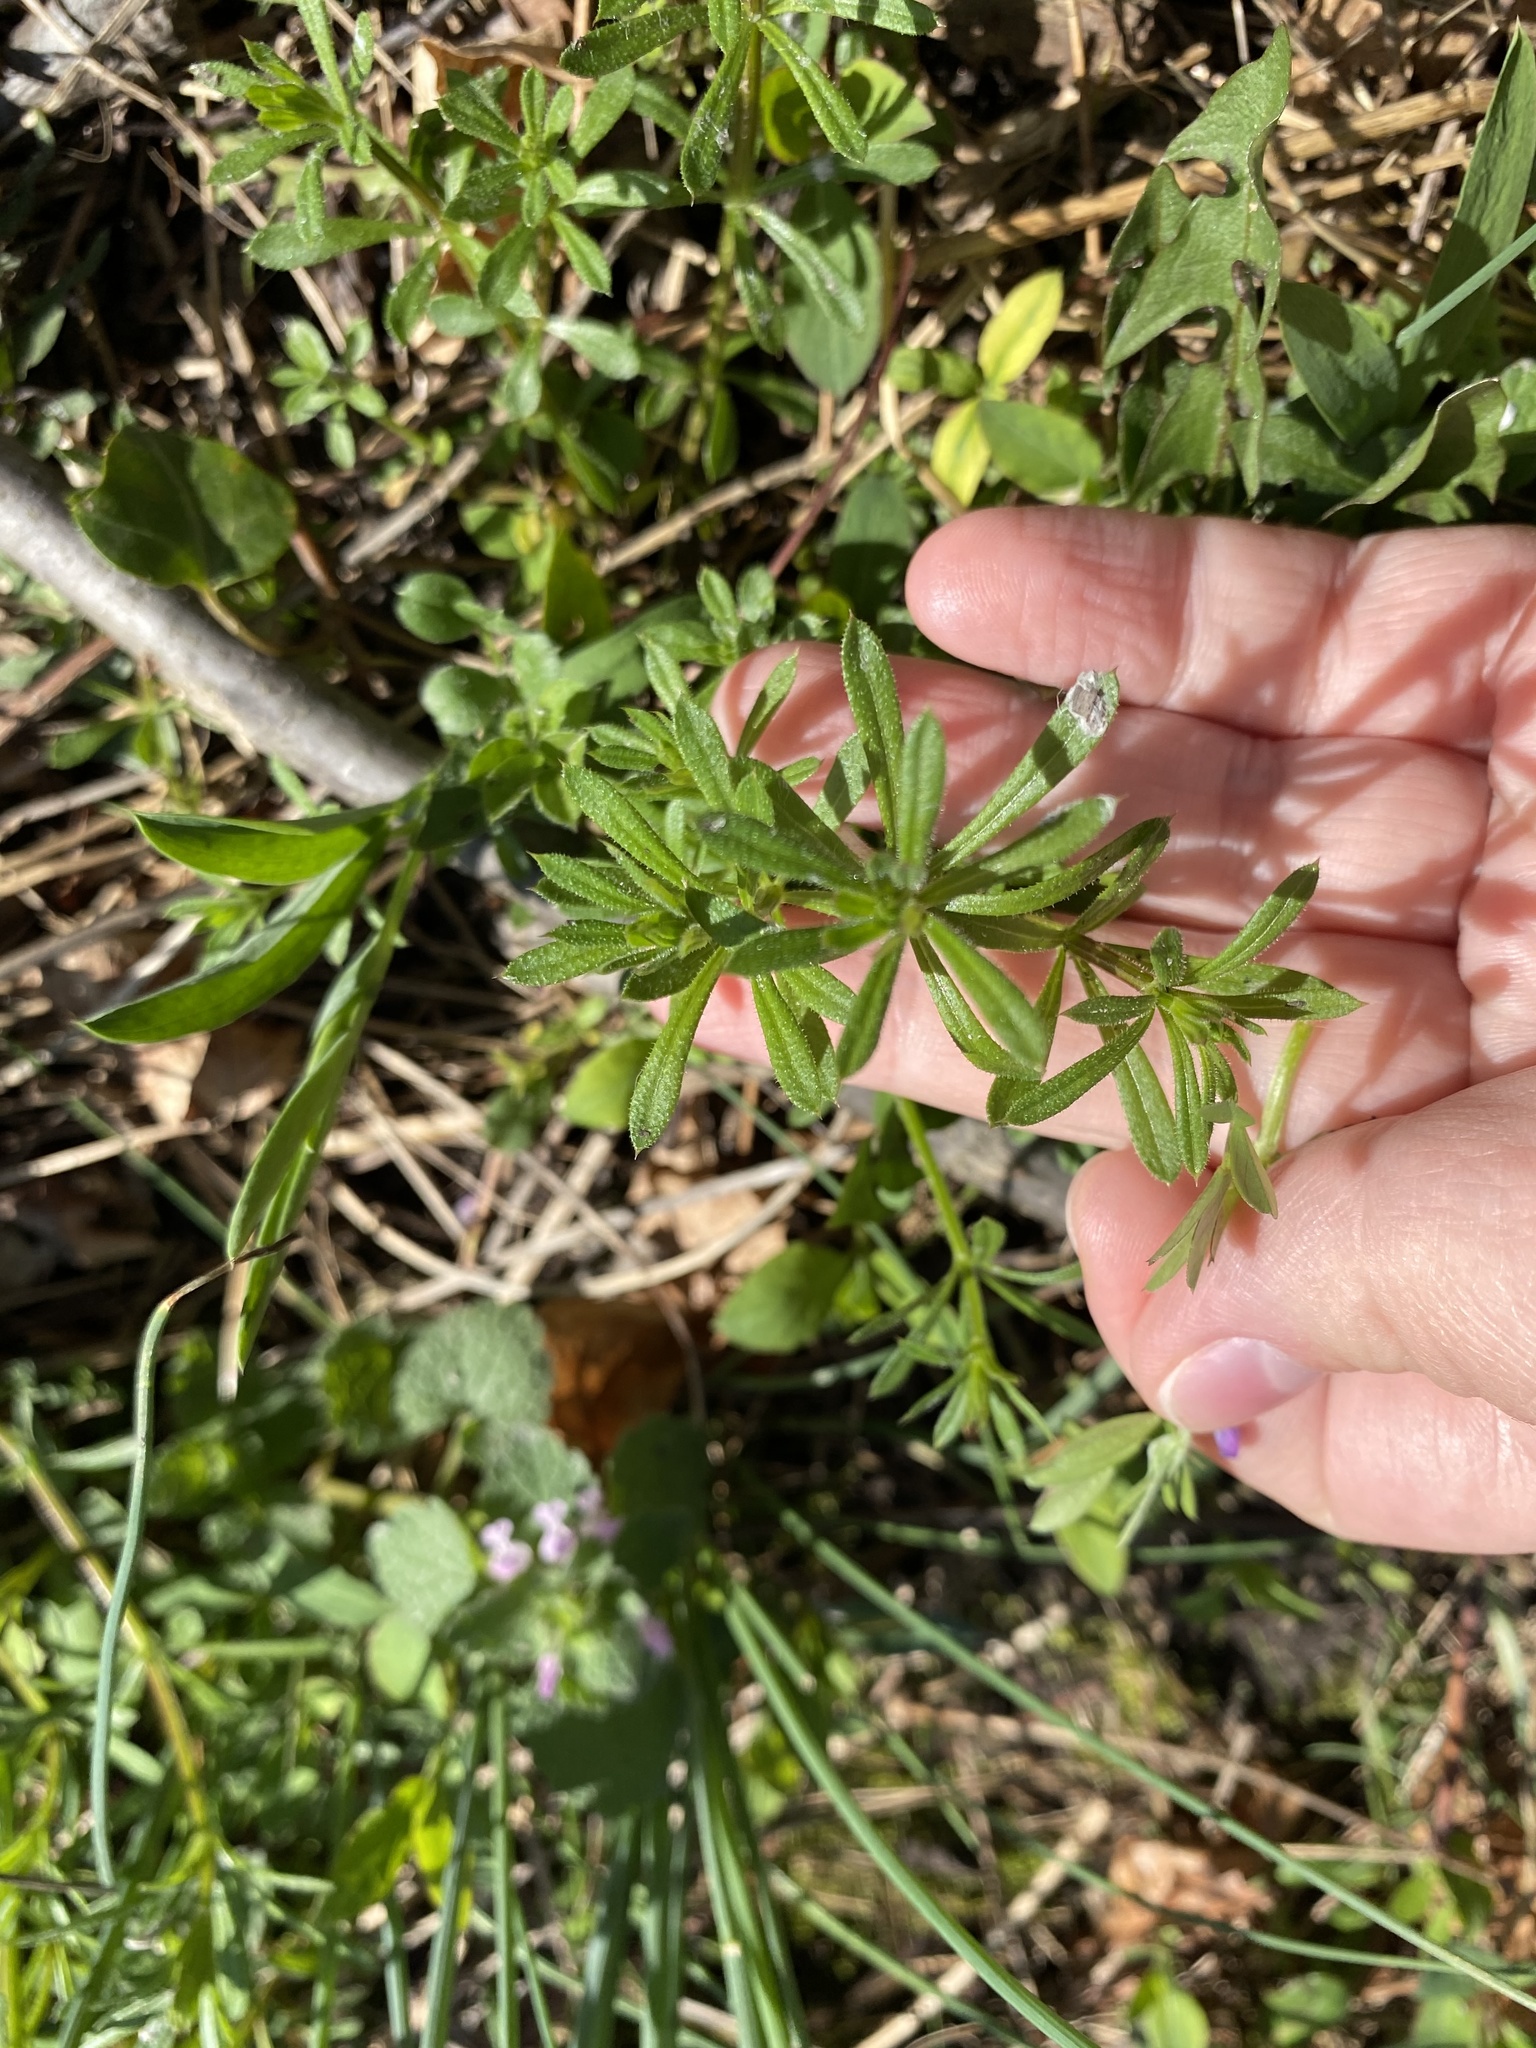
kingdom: Plantae
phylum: Tracheophyta
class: Magnoliopsida
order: Gentianales
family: Rubiaceae
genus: Galium
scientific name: Galium aparine
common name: Cleavers
